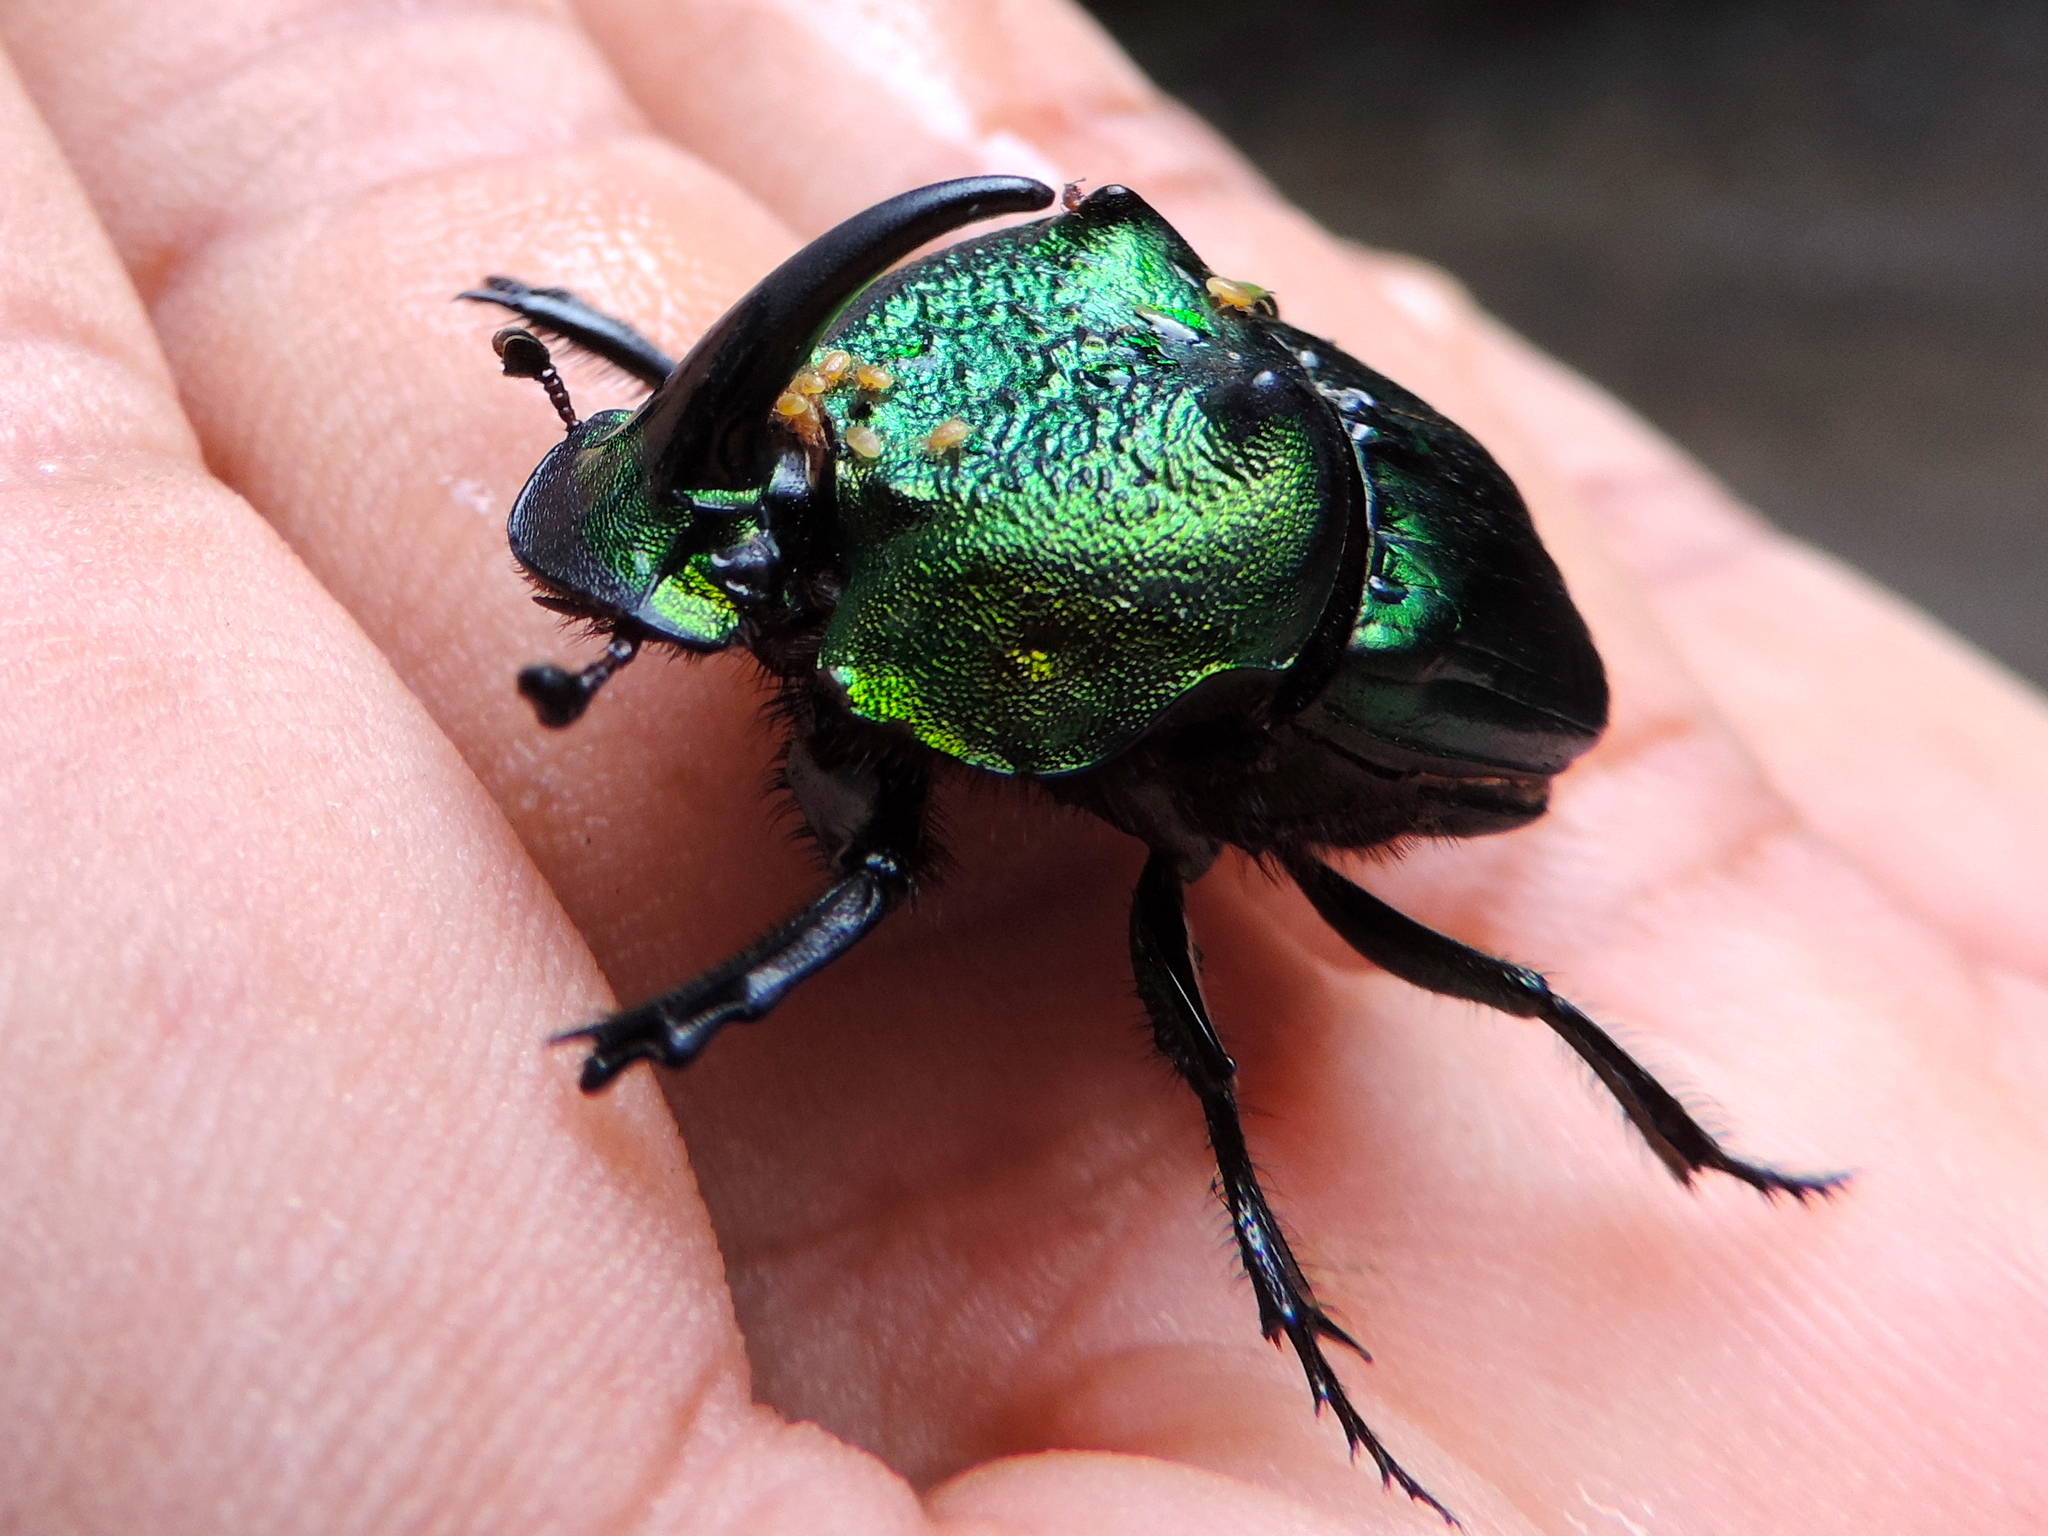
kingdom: Animalia
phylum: Arthropoda
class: Insecta
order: Coleoptera
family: Scarabaeidae
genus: Phanaeus
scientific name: Phanaeus amithaon
